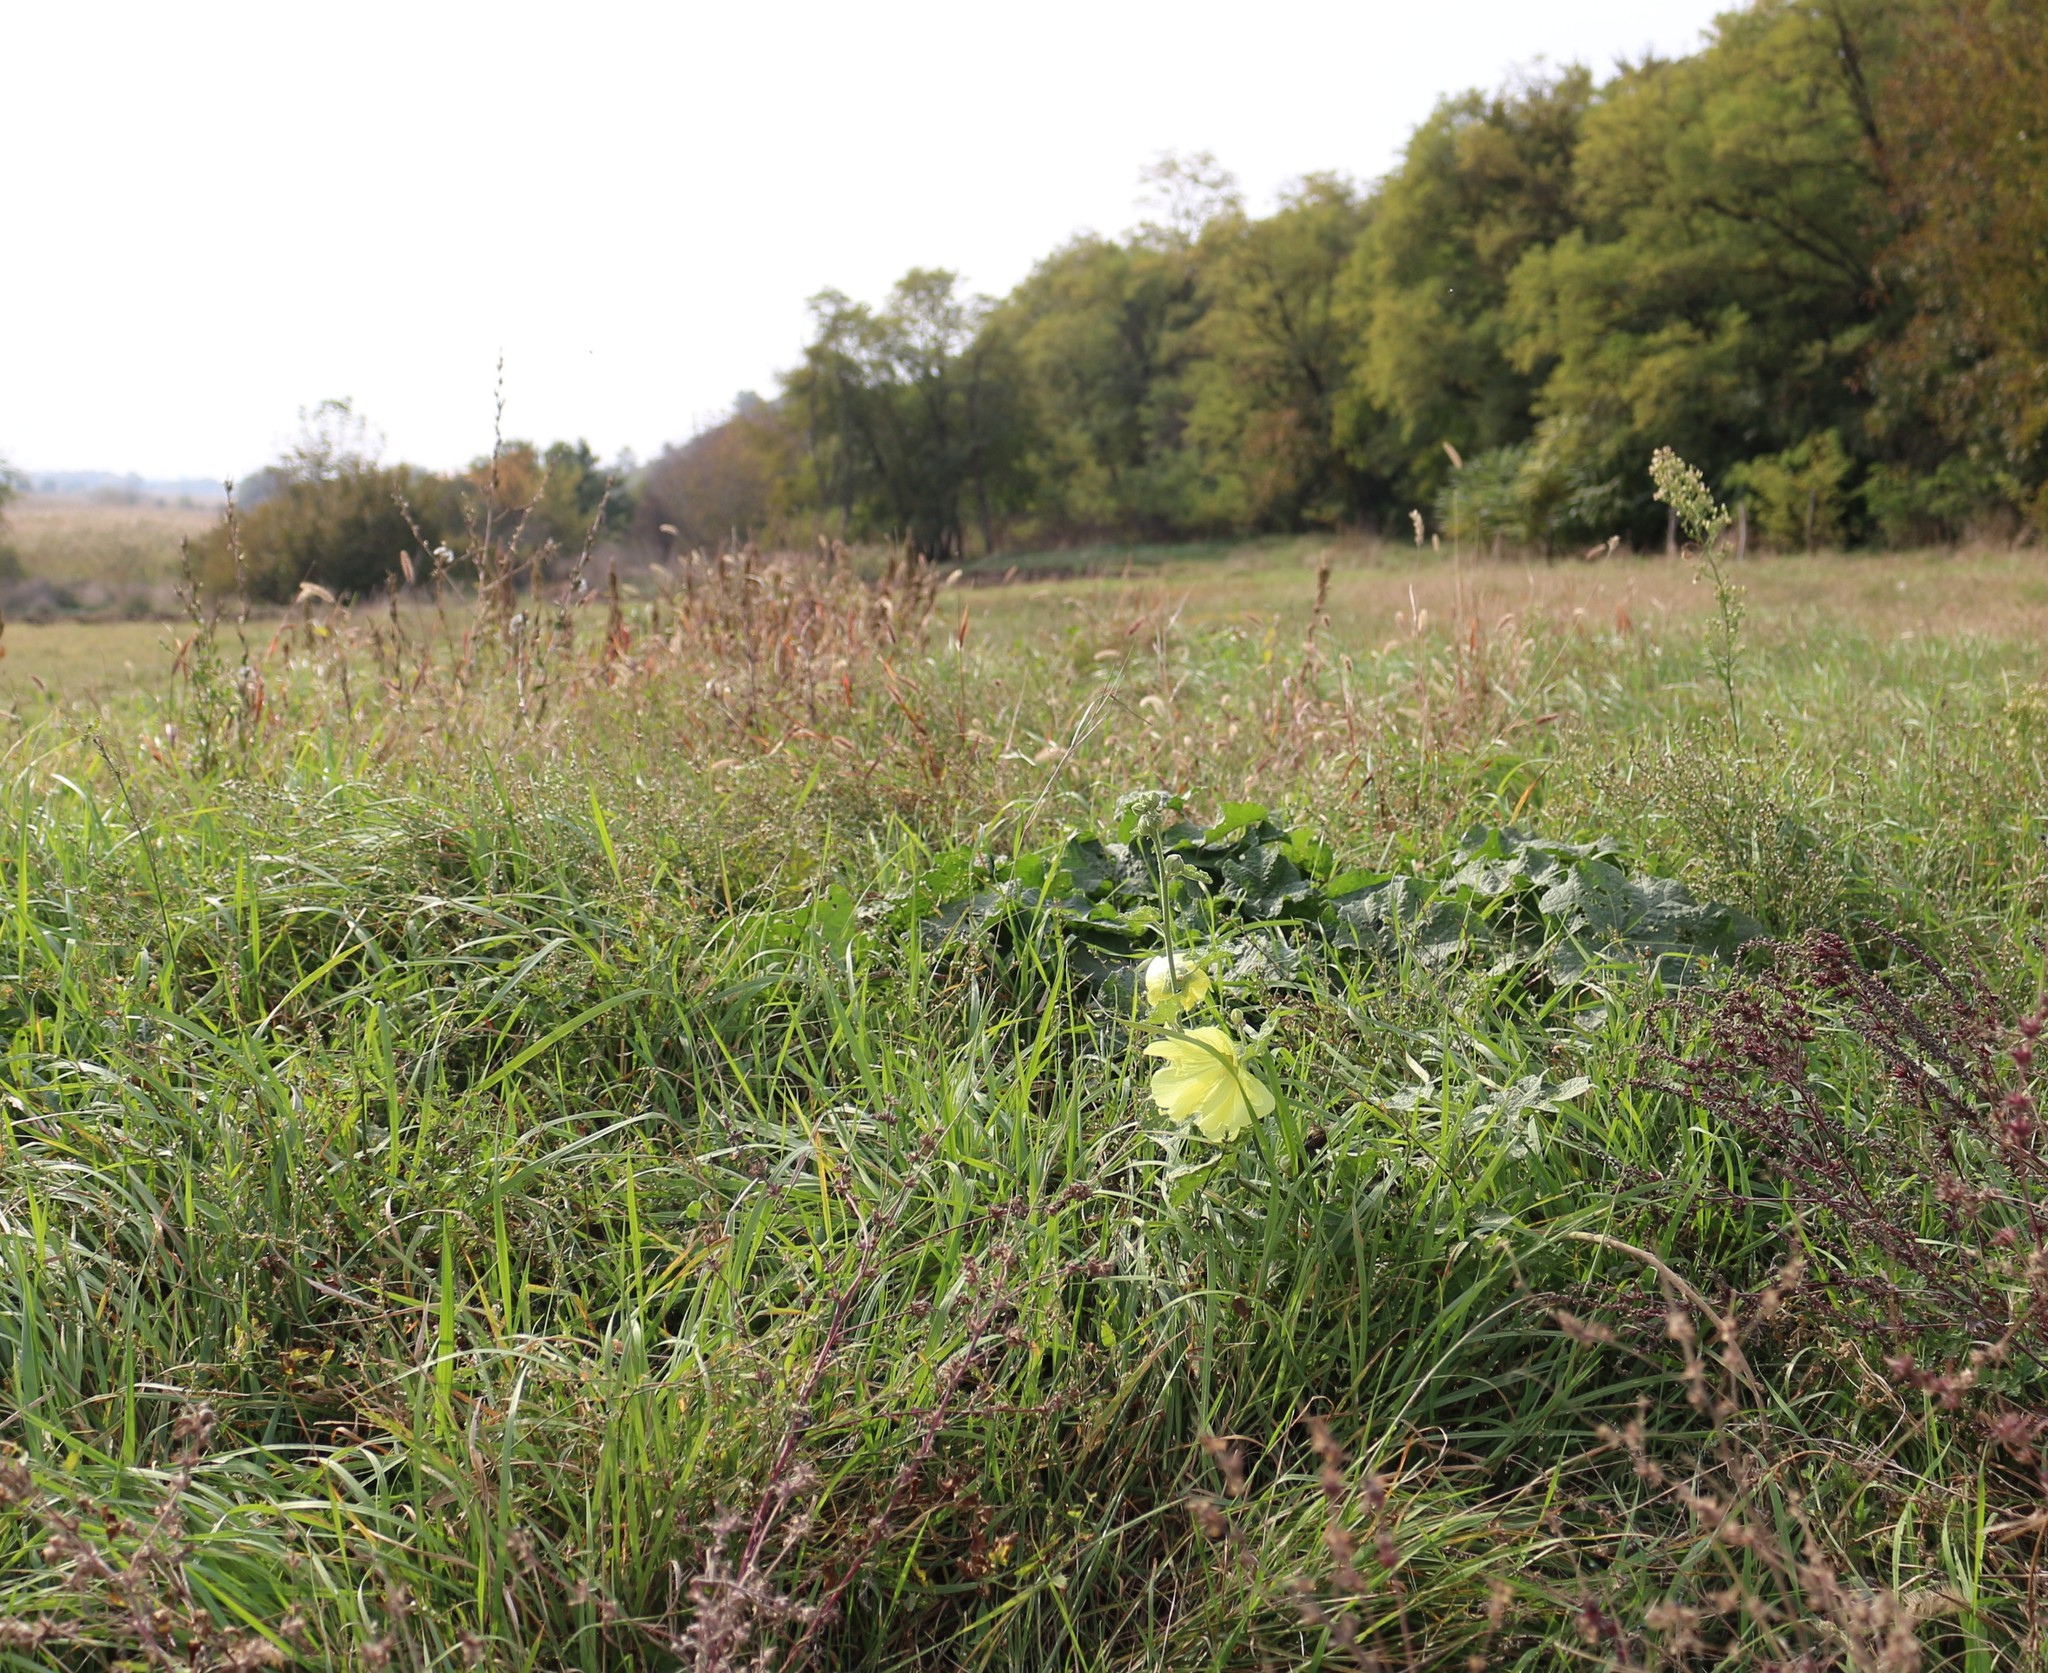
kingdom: Plantae
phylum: Tracheophyta
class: Magnoliopsida
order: Malvales
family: Malvaceae
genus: Alcea
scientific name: Alcea rugosa
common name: Russian hollyhock
